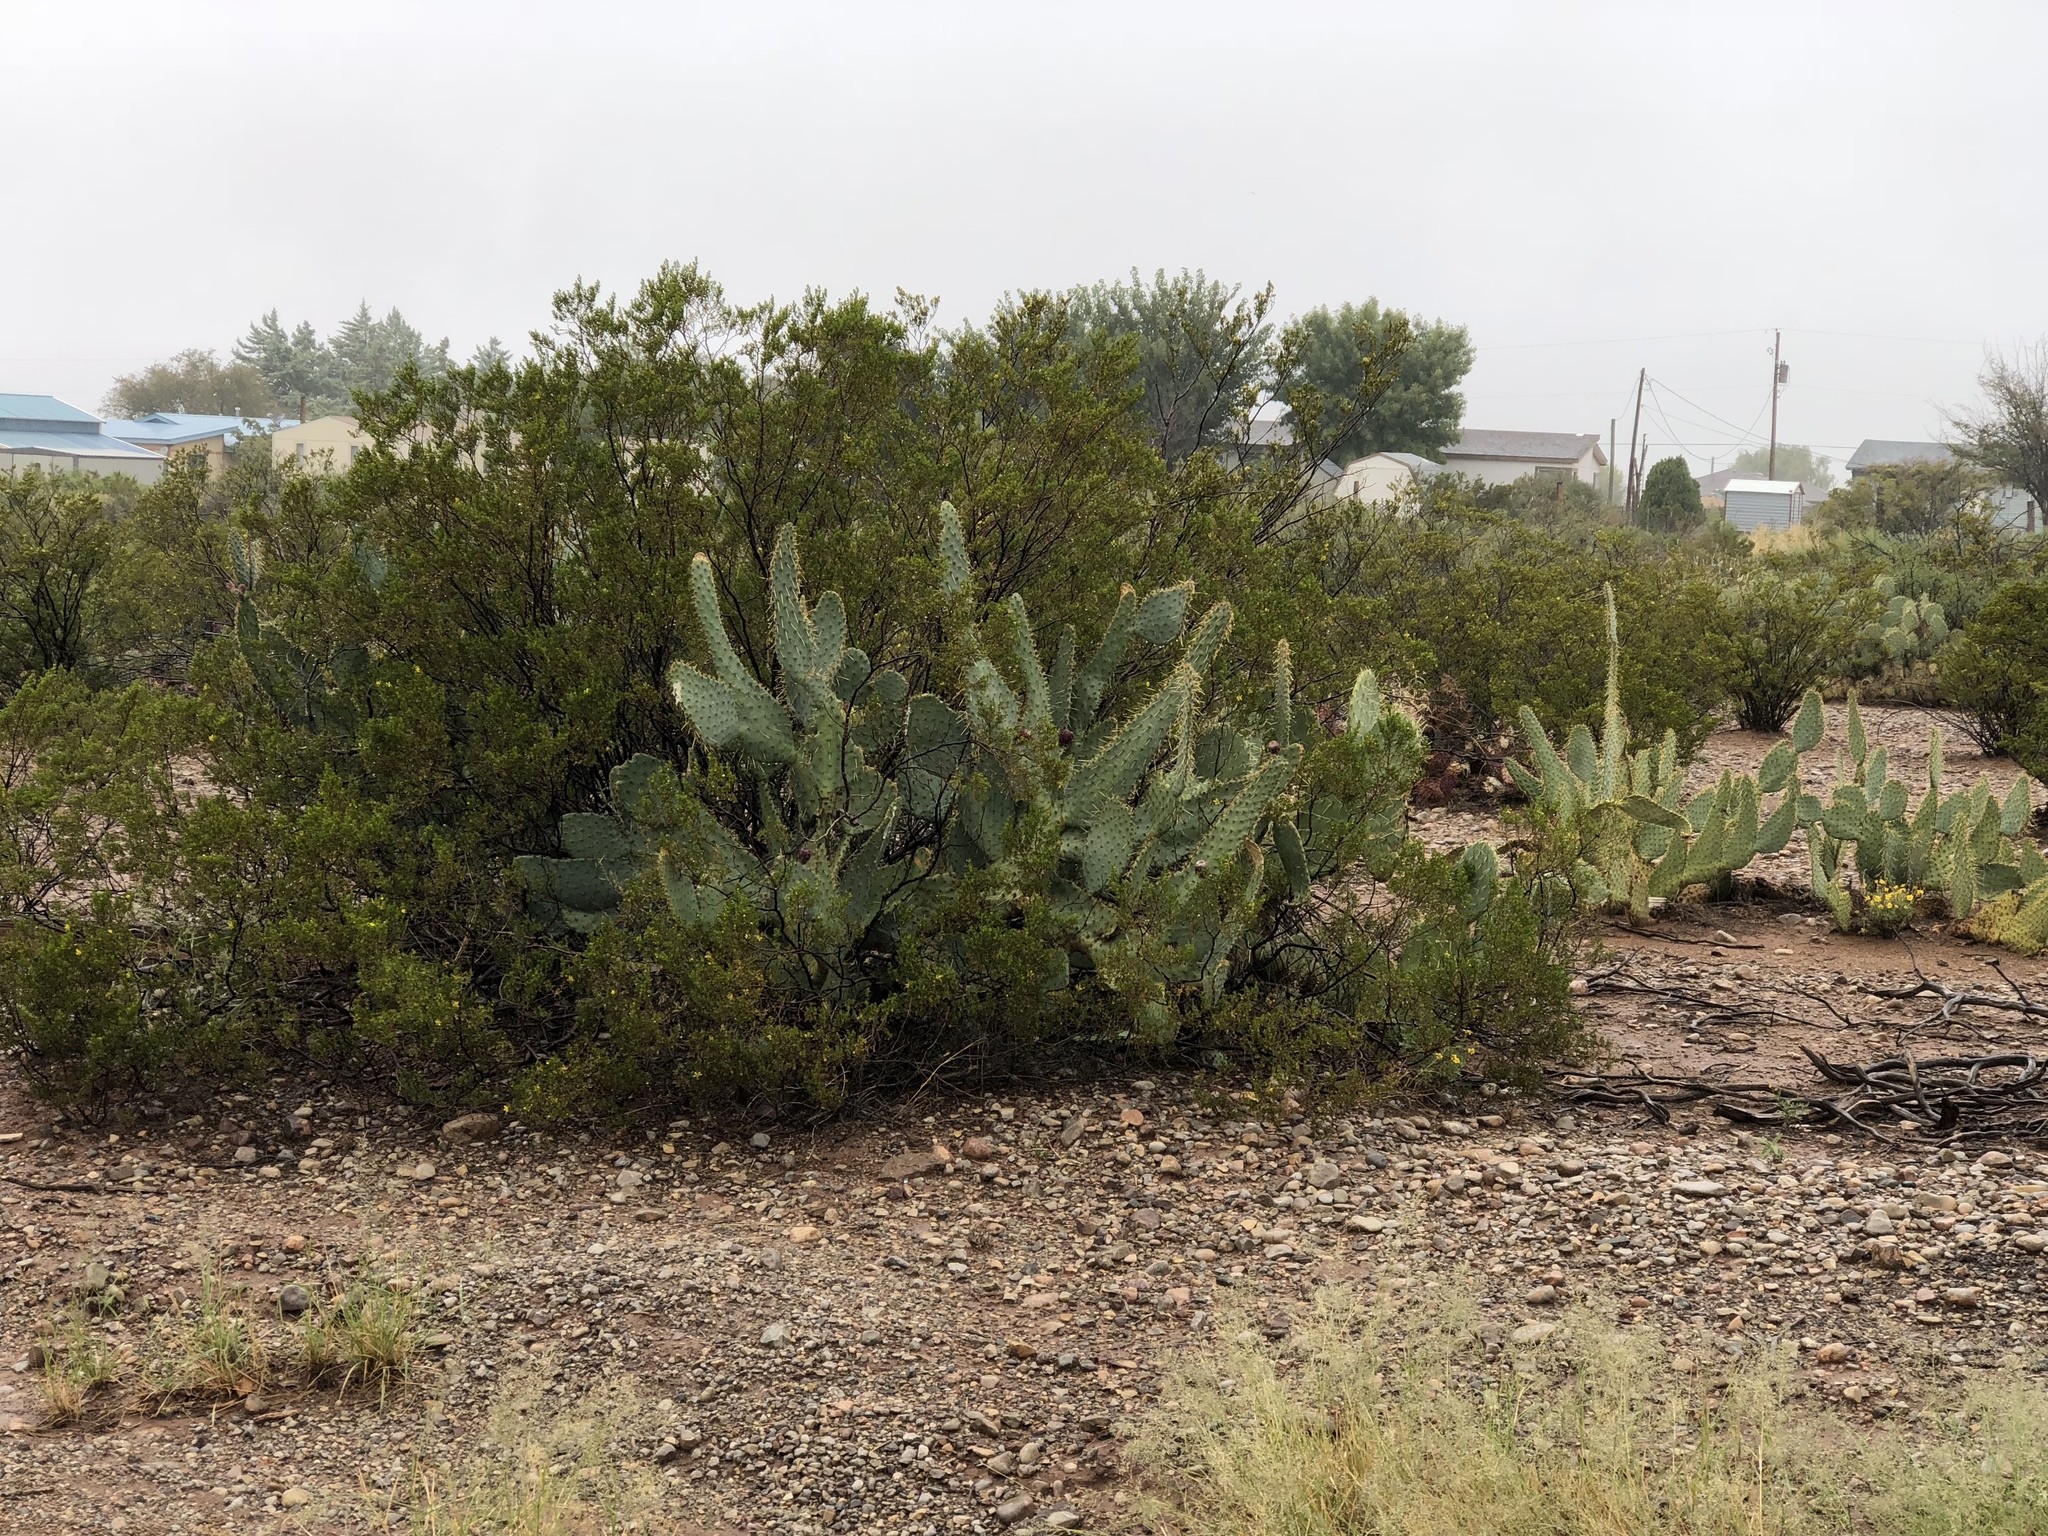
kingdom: Plantae
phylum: Tracheophyta
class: Magnoliopsida
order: Caryophyllales
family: Cactaceae
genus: Opuntia
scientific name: Opuntia engelmannii
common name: Cactus-apple
